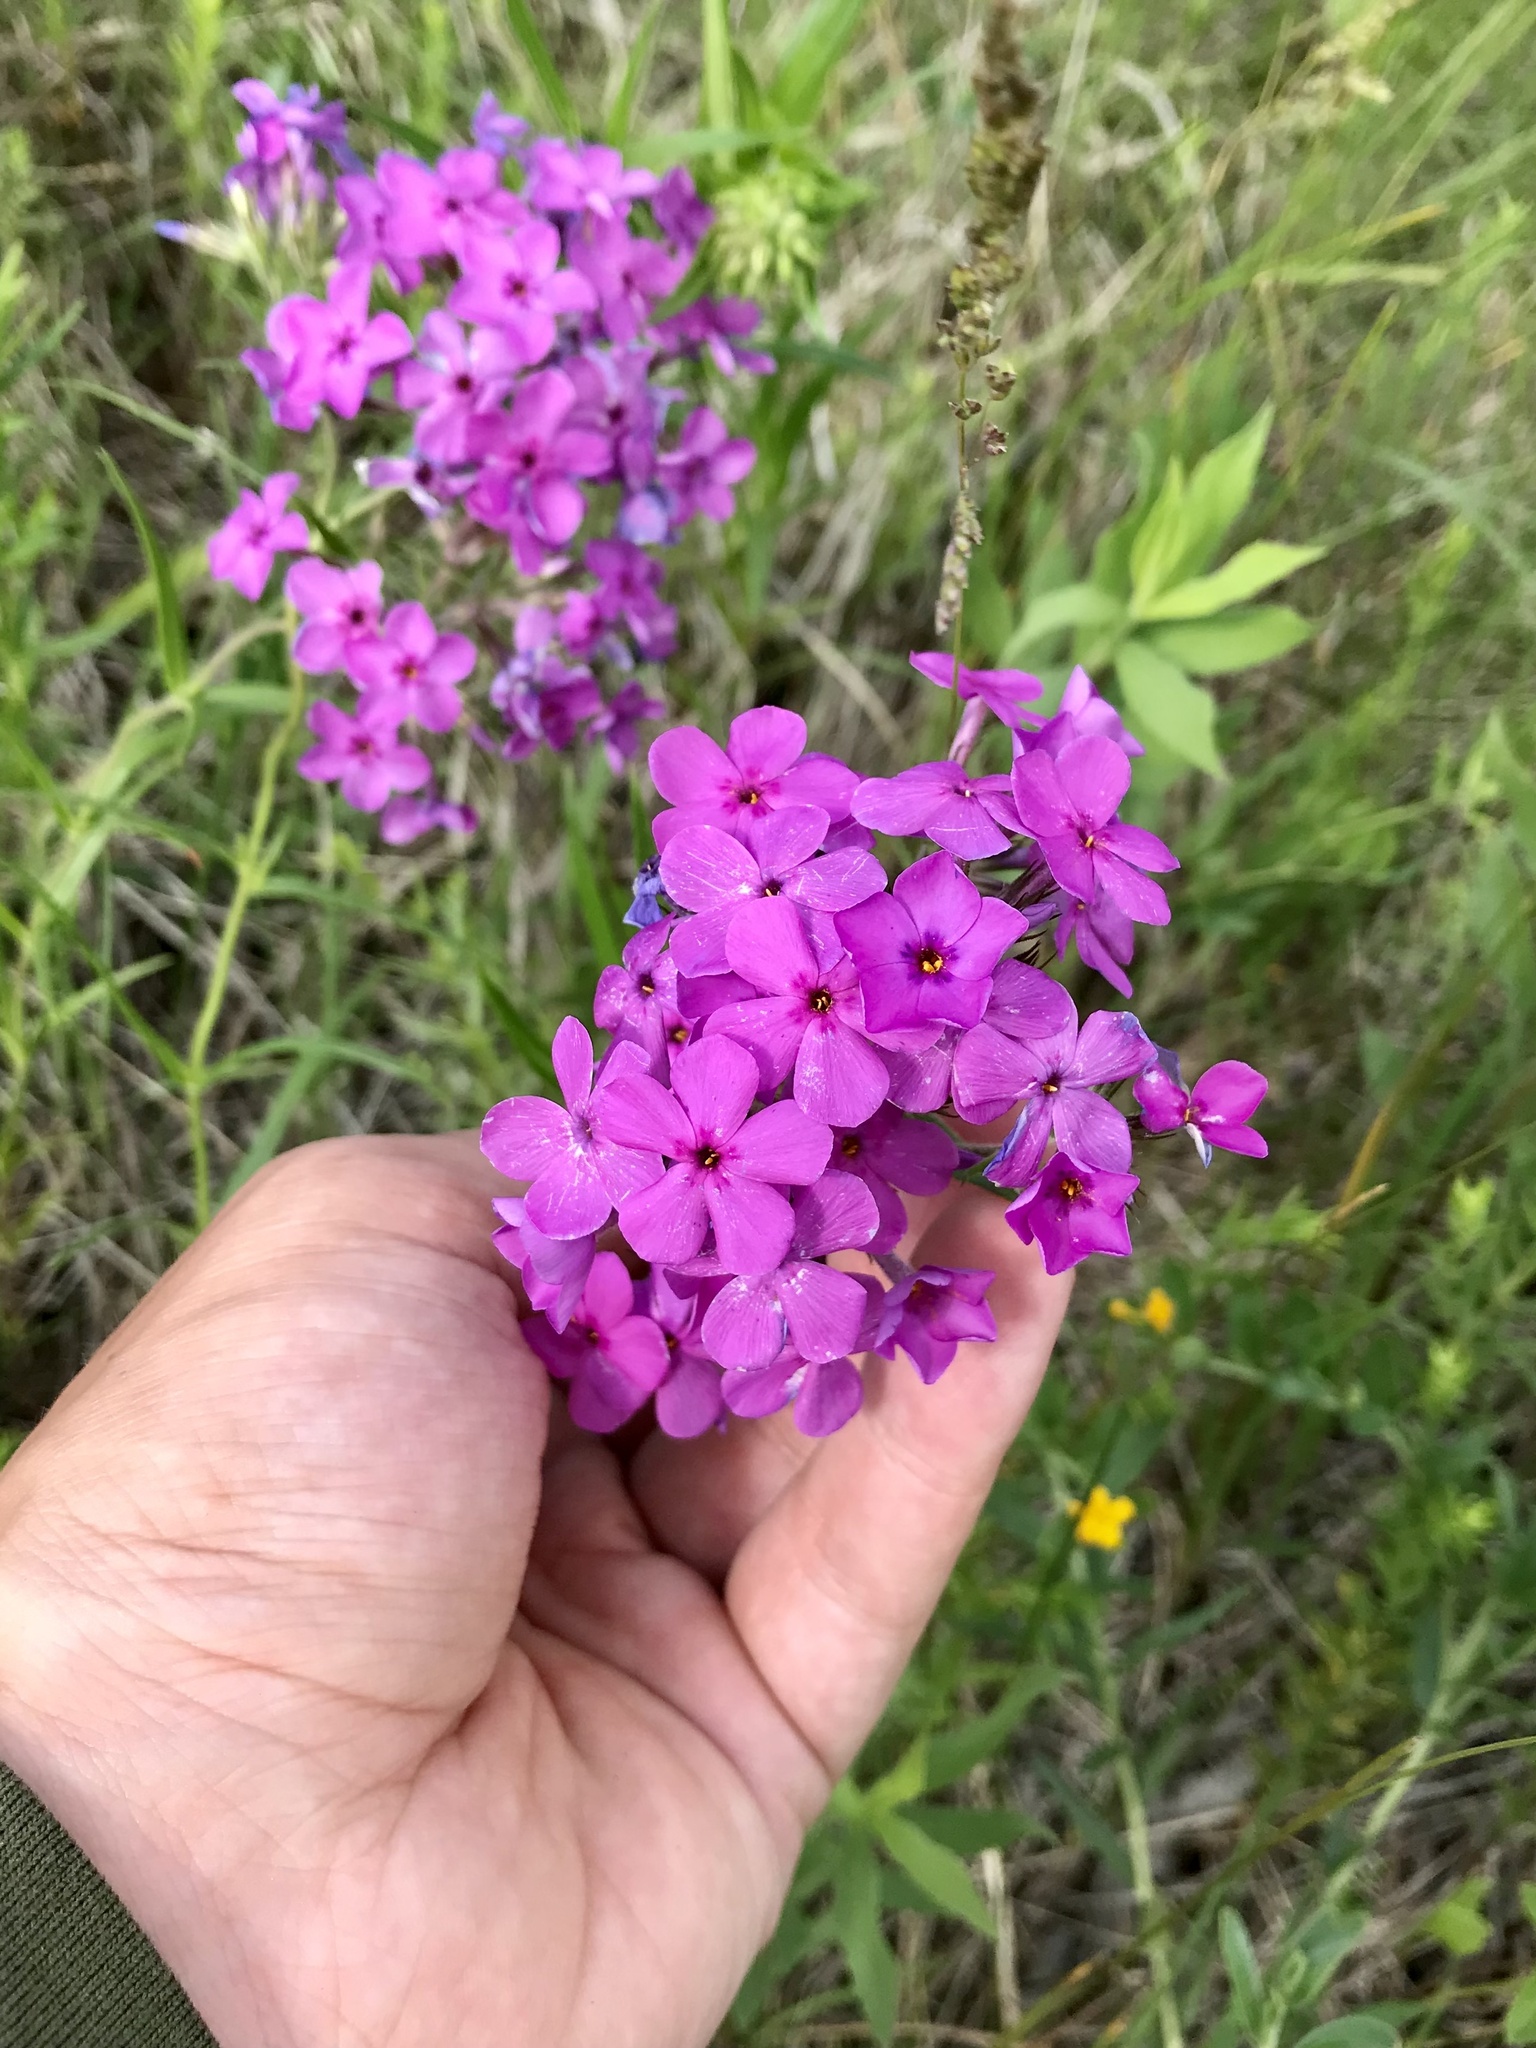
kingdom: Plantae
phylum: Tracheophyta
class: Magnoliopsida
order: Ericales
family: Polemoniaceae
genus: Phlox
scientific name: Phlox pilosa
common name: Prairie phlox
